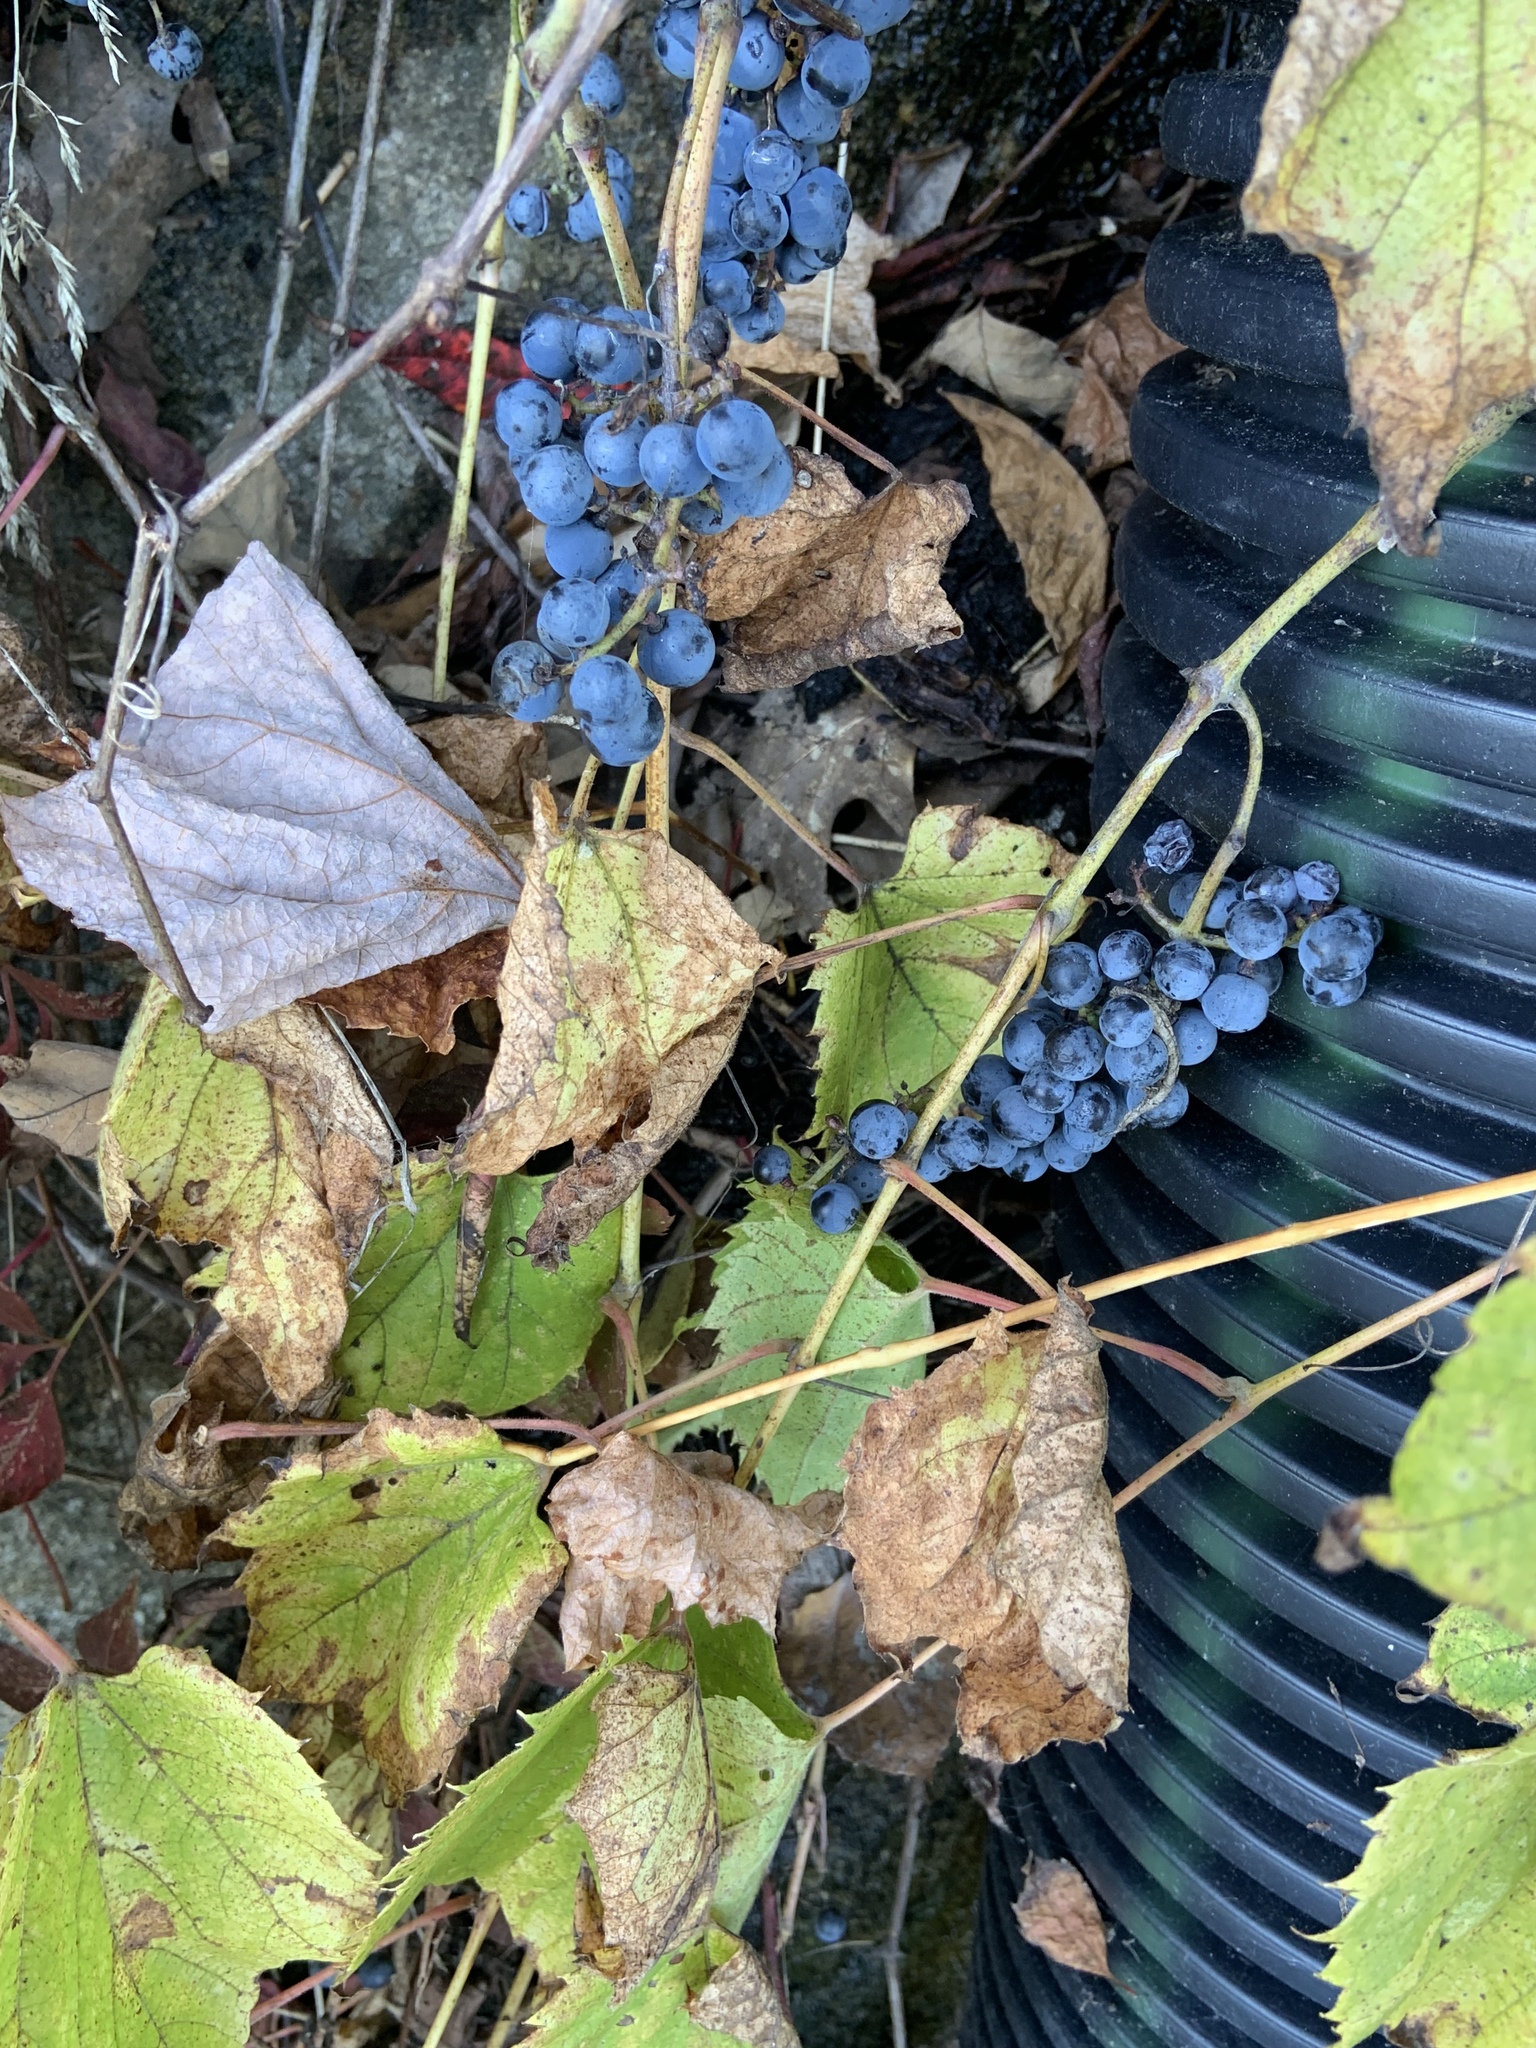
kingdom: Plantae
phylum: Tracheophyta
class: Magnoliopsida
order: Vitales
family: Vitaceae
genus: Vitis
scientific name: Vitis riparia
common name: Frost grape
